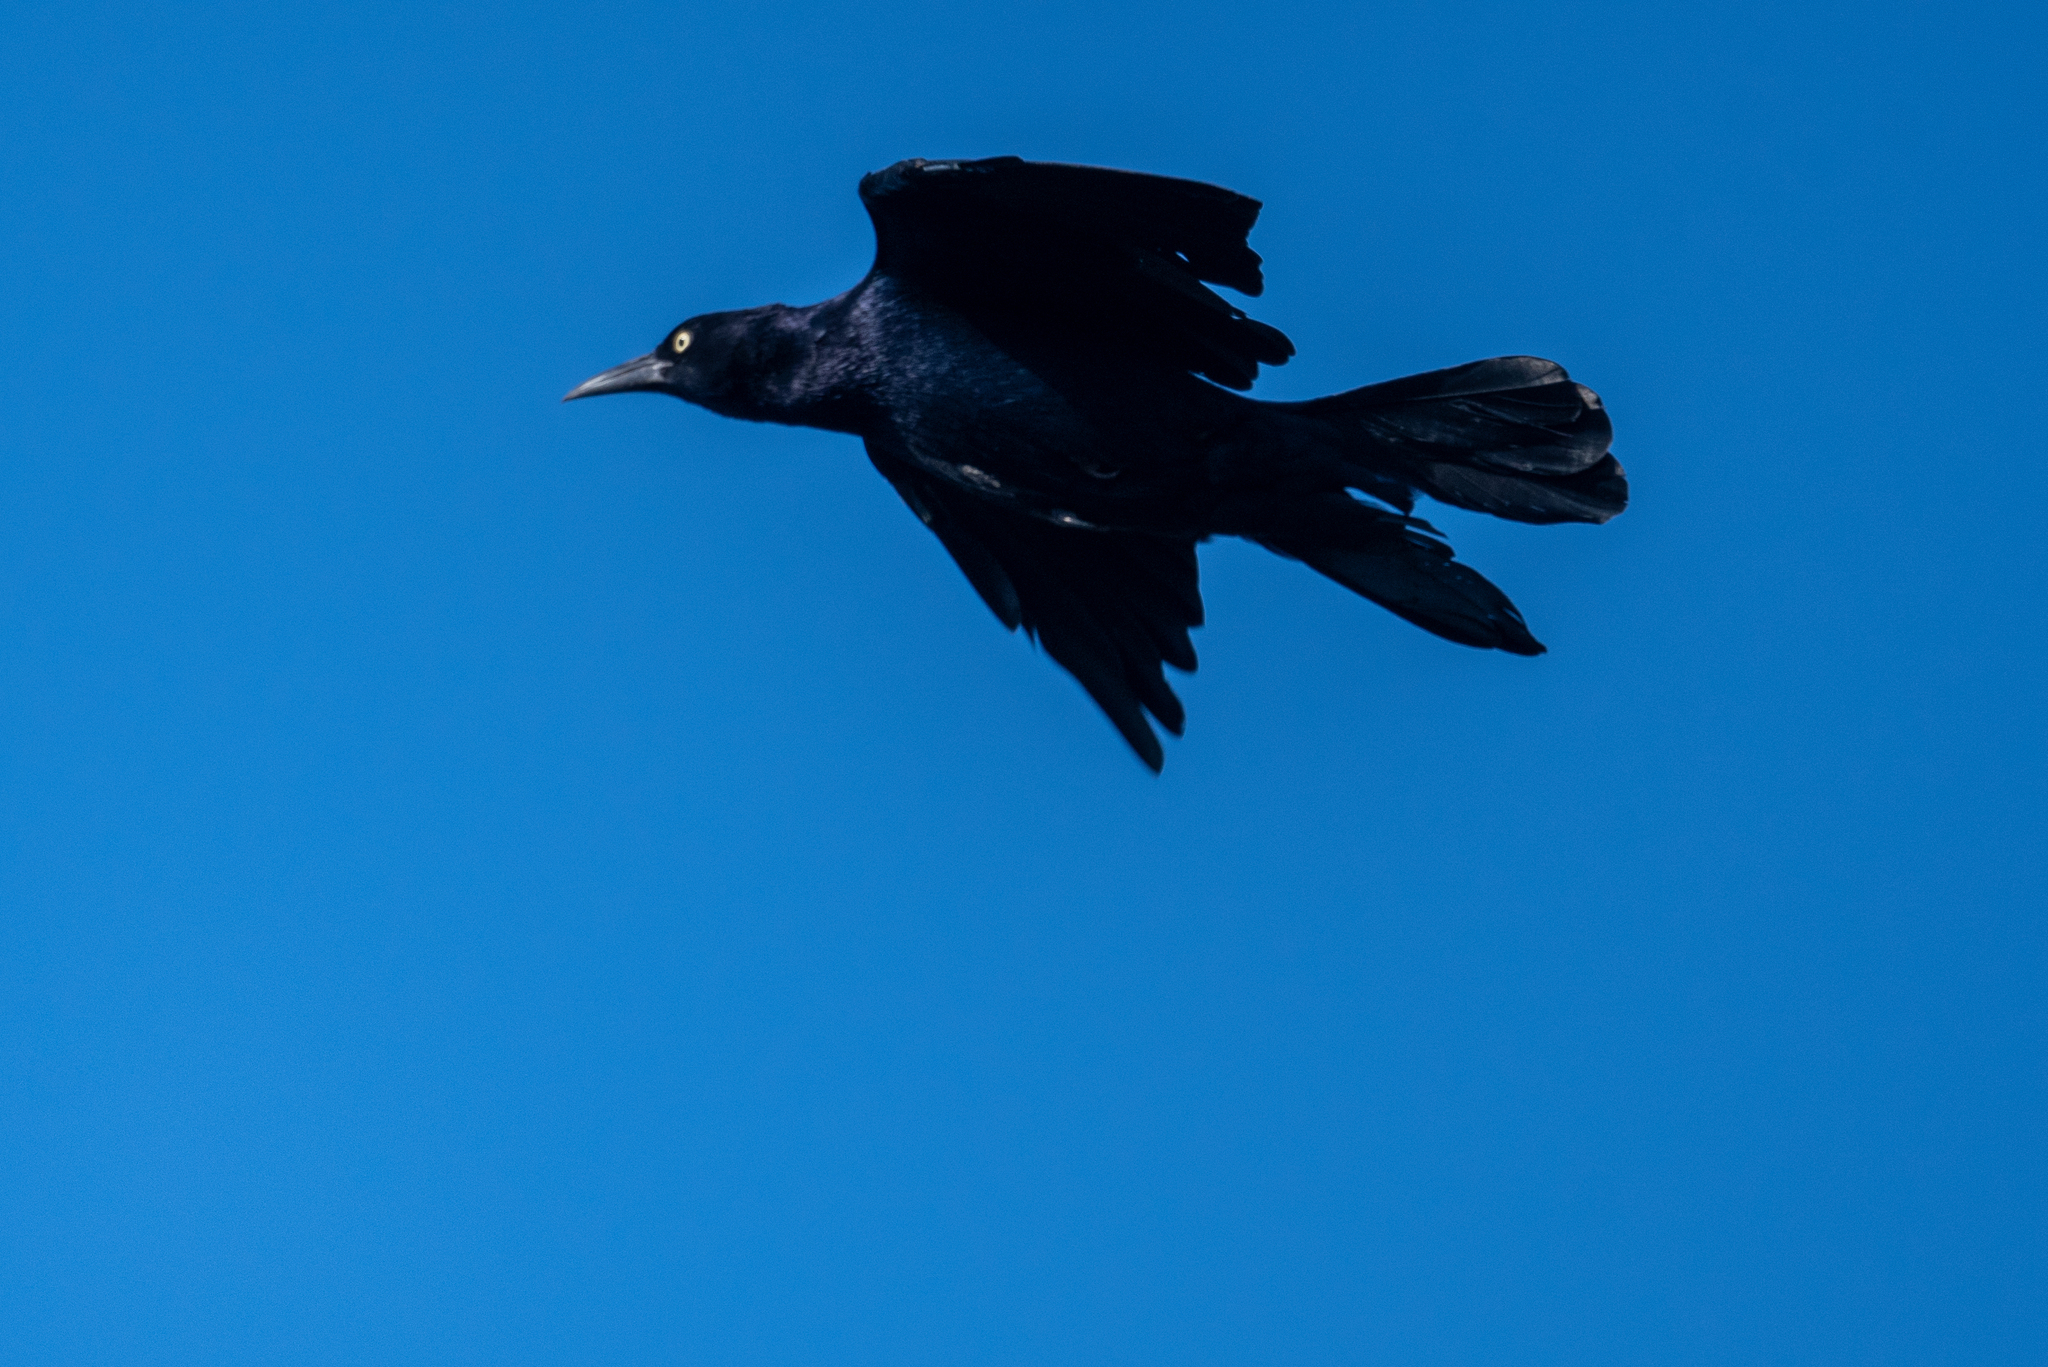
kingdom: Animalia
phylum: Chordata
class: Aves
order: Passeriformes
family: Icteridae
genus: Quiscalus
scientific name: Quiscalus mexicanus
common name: Great-tailed grackle
